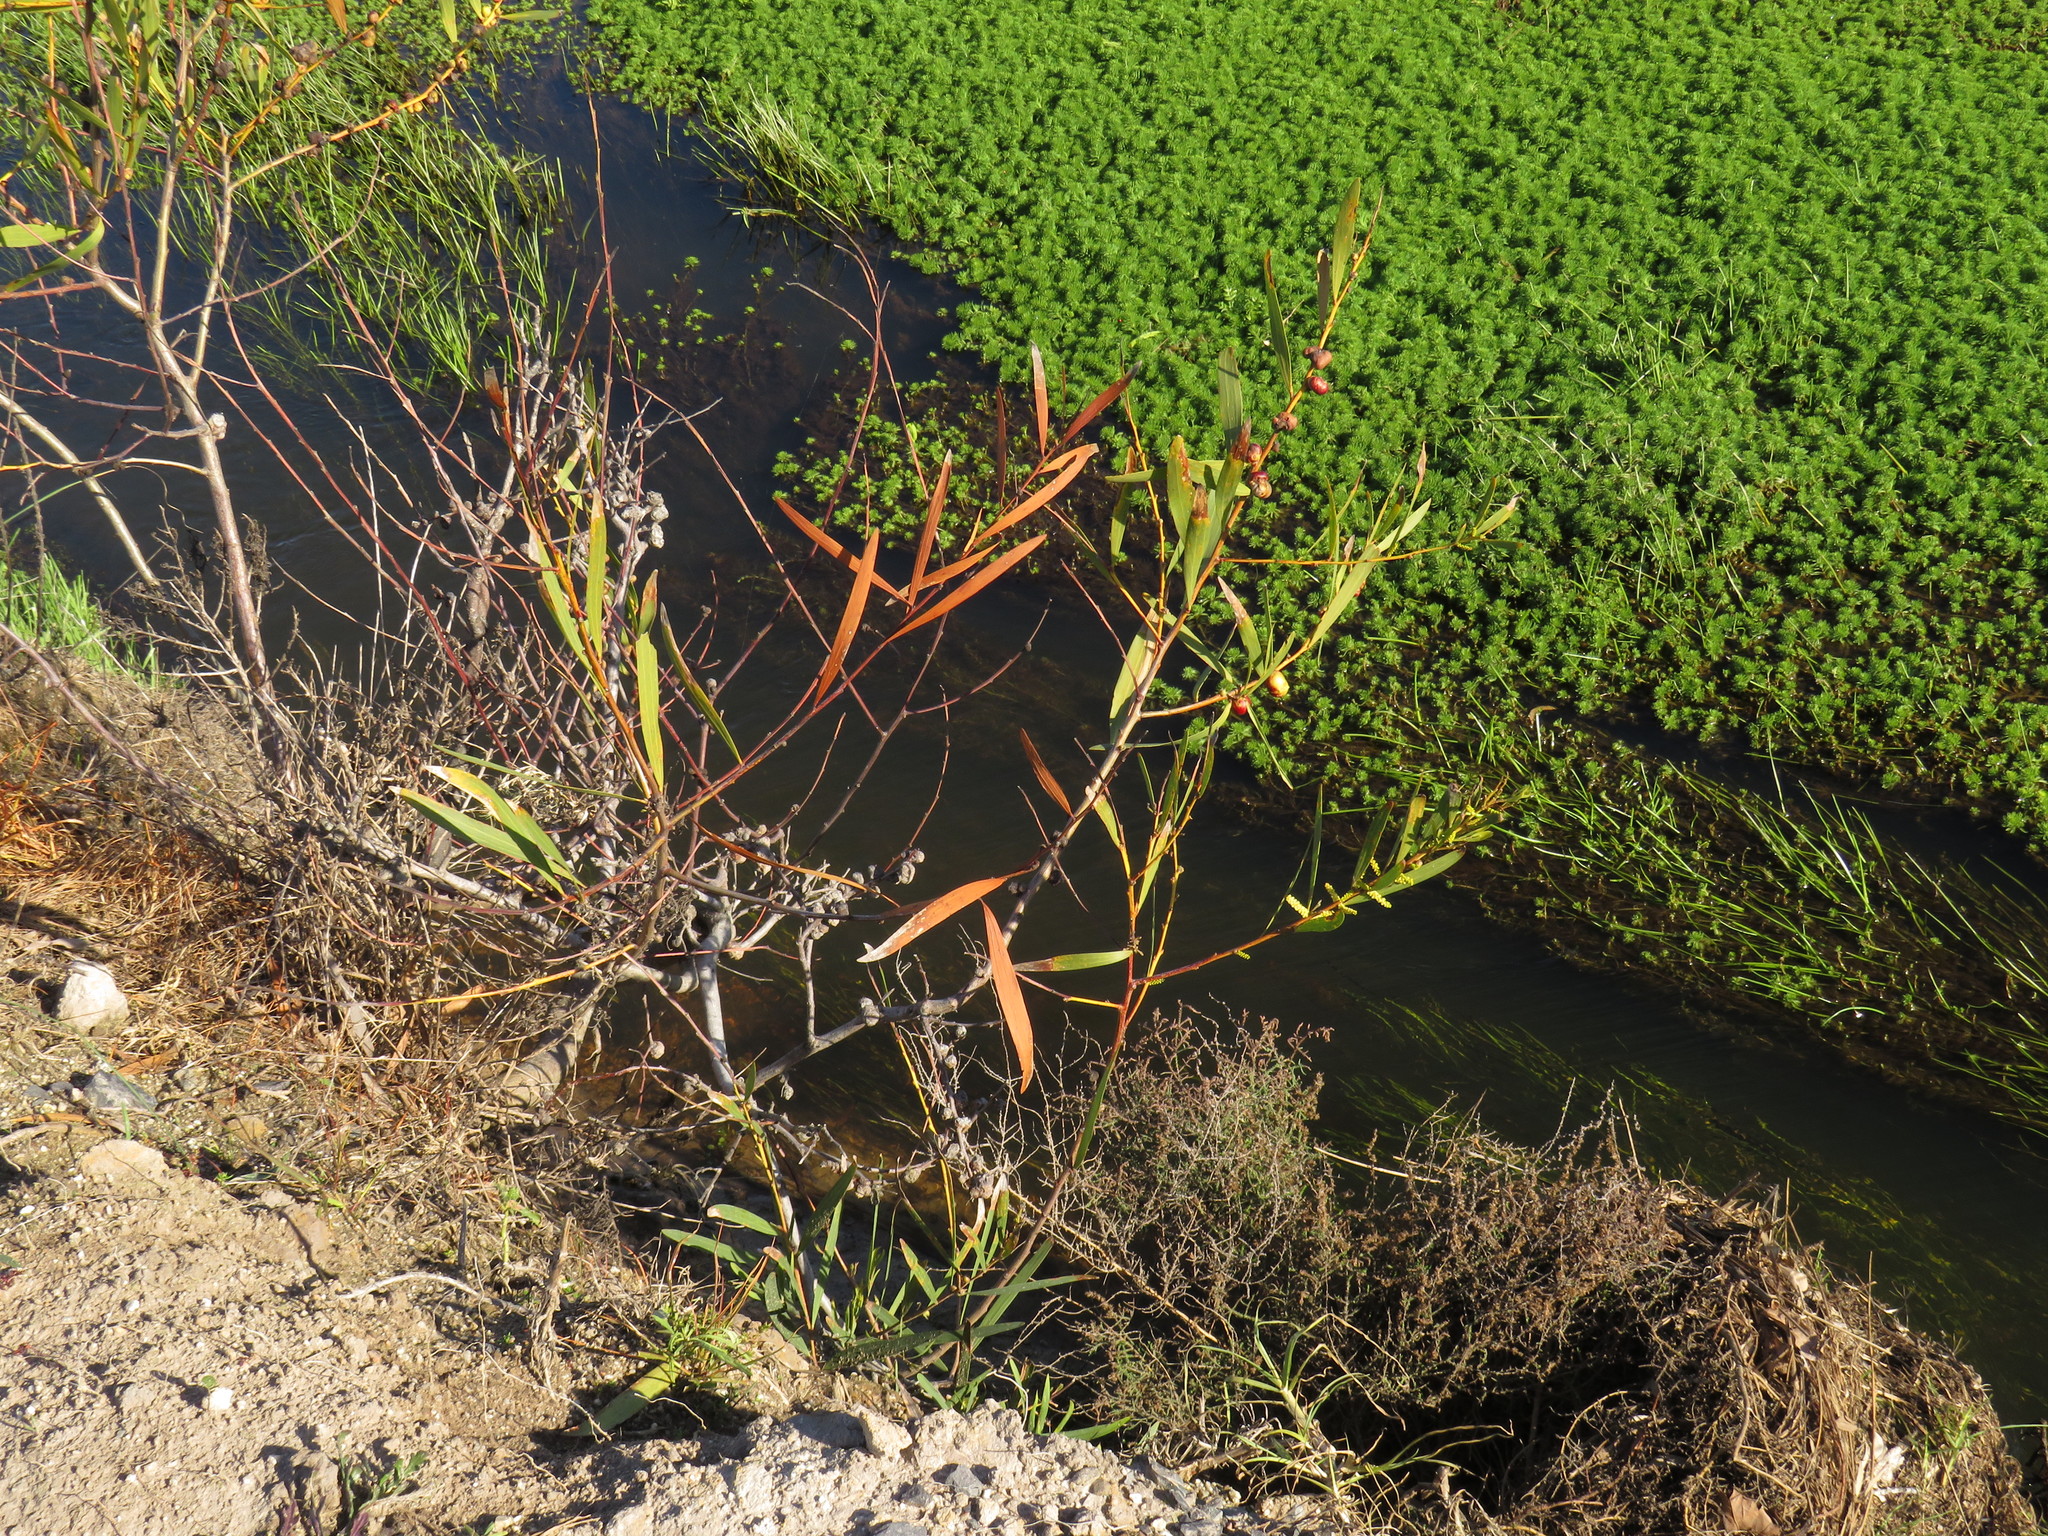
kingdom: Plantae
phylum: Tracheophyta
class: Magnoliopsida
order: Fabales
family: Fabaceae
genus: Acacia
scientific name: Acacia longifolia
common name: Sydney golden wattle
